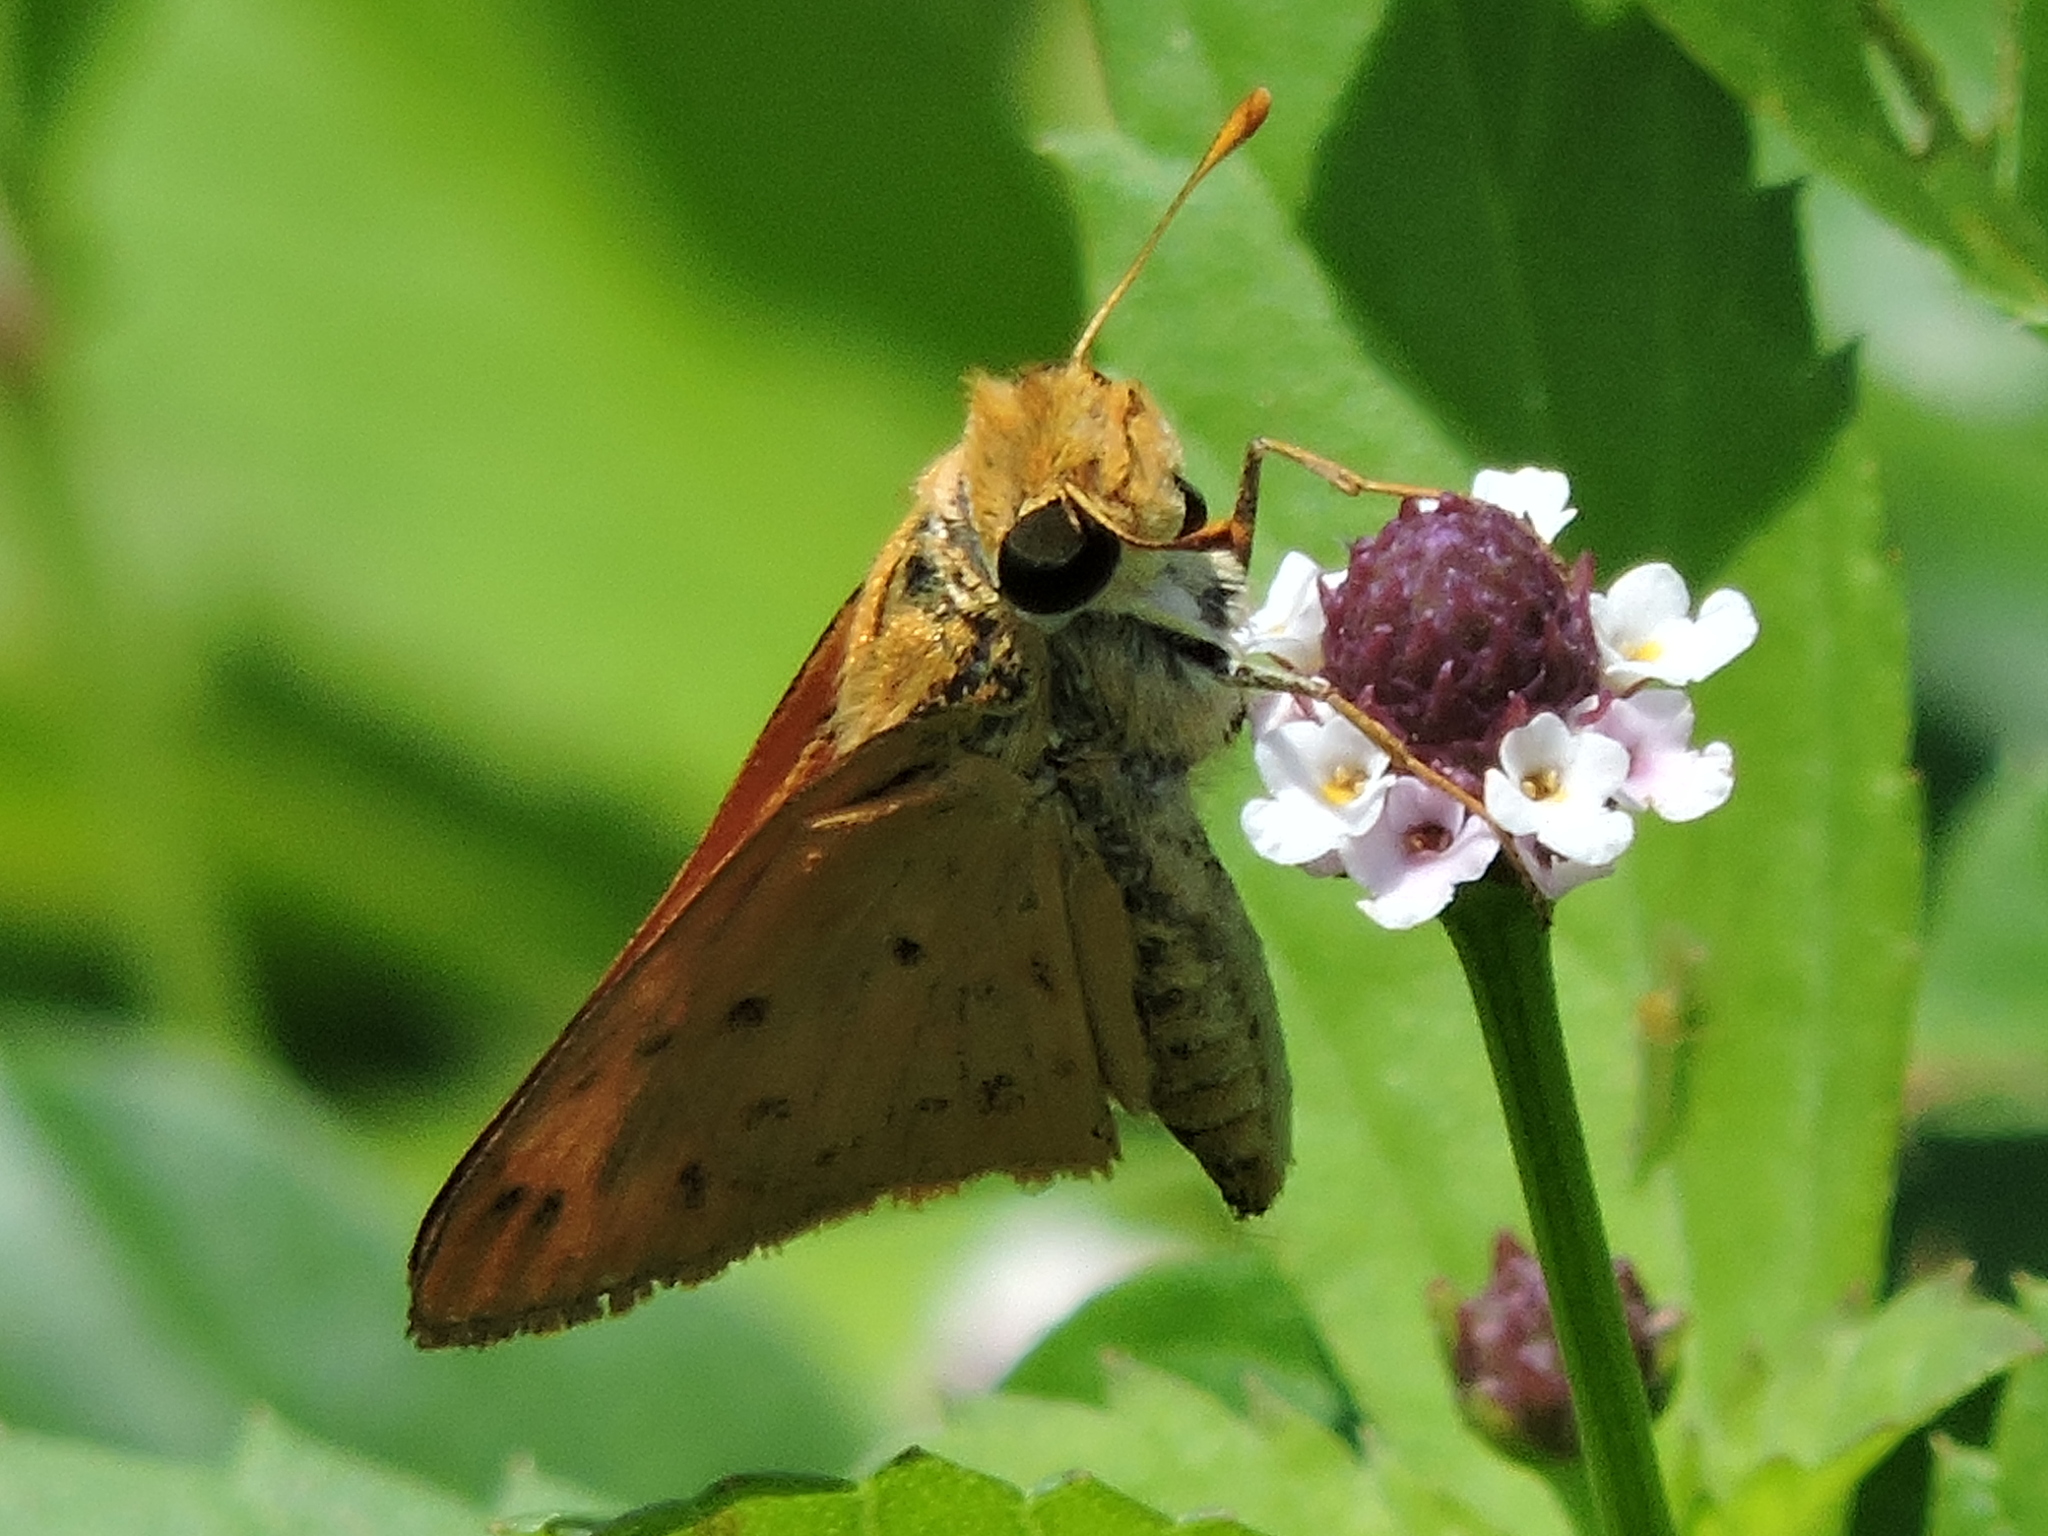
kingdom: Animalia
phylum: Arthropoda
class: Insecta
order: Lepidoptera
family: Hesperiidae
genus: Hylephila
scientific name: Hylephila phyleus
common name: Fiery skipper
